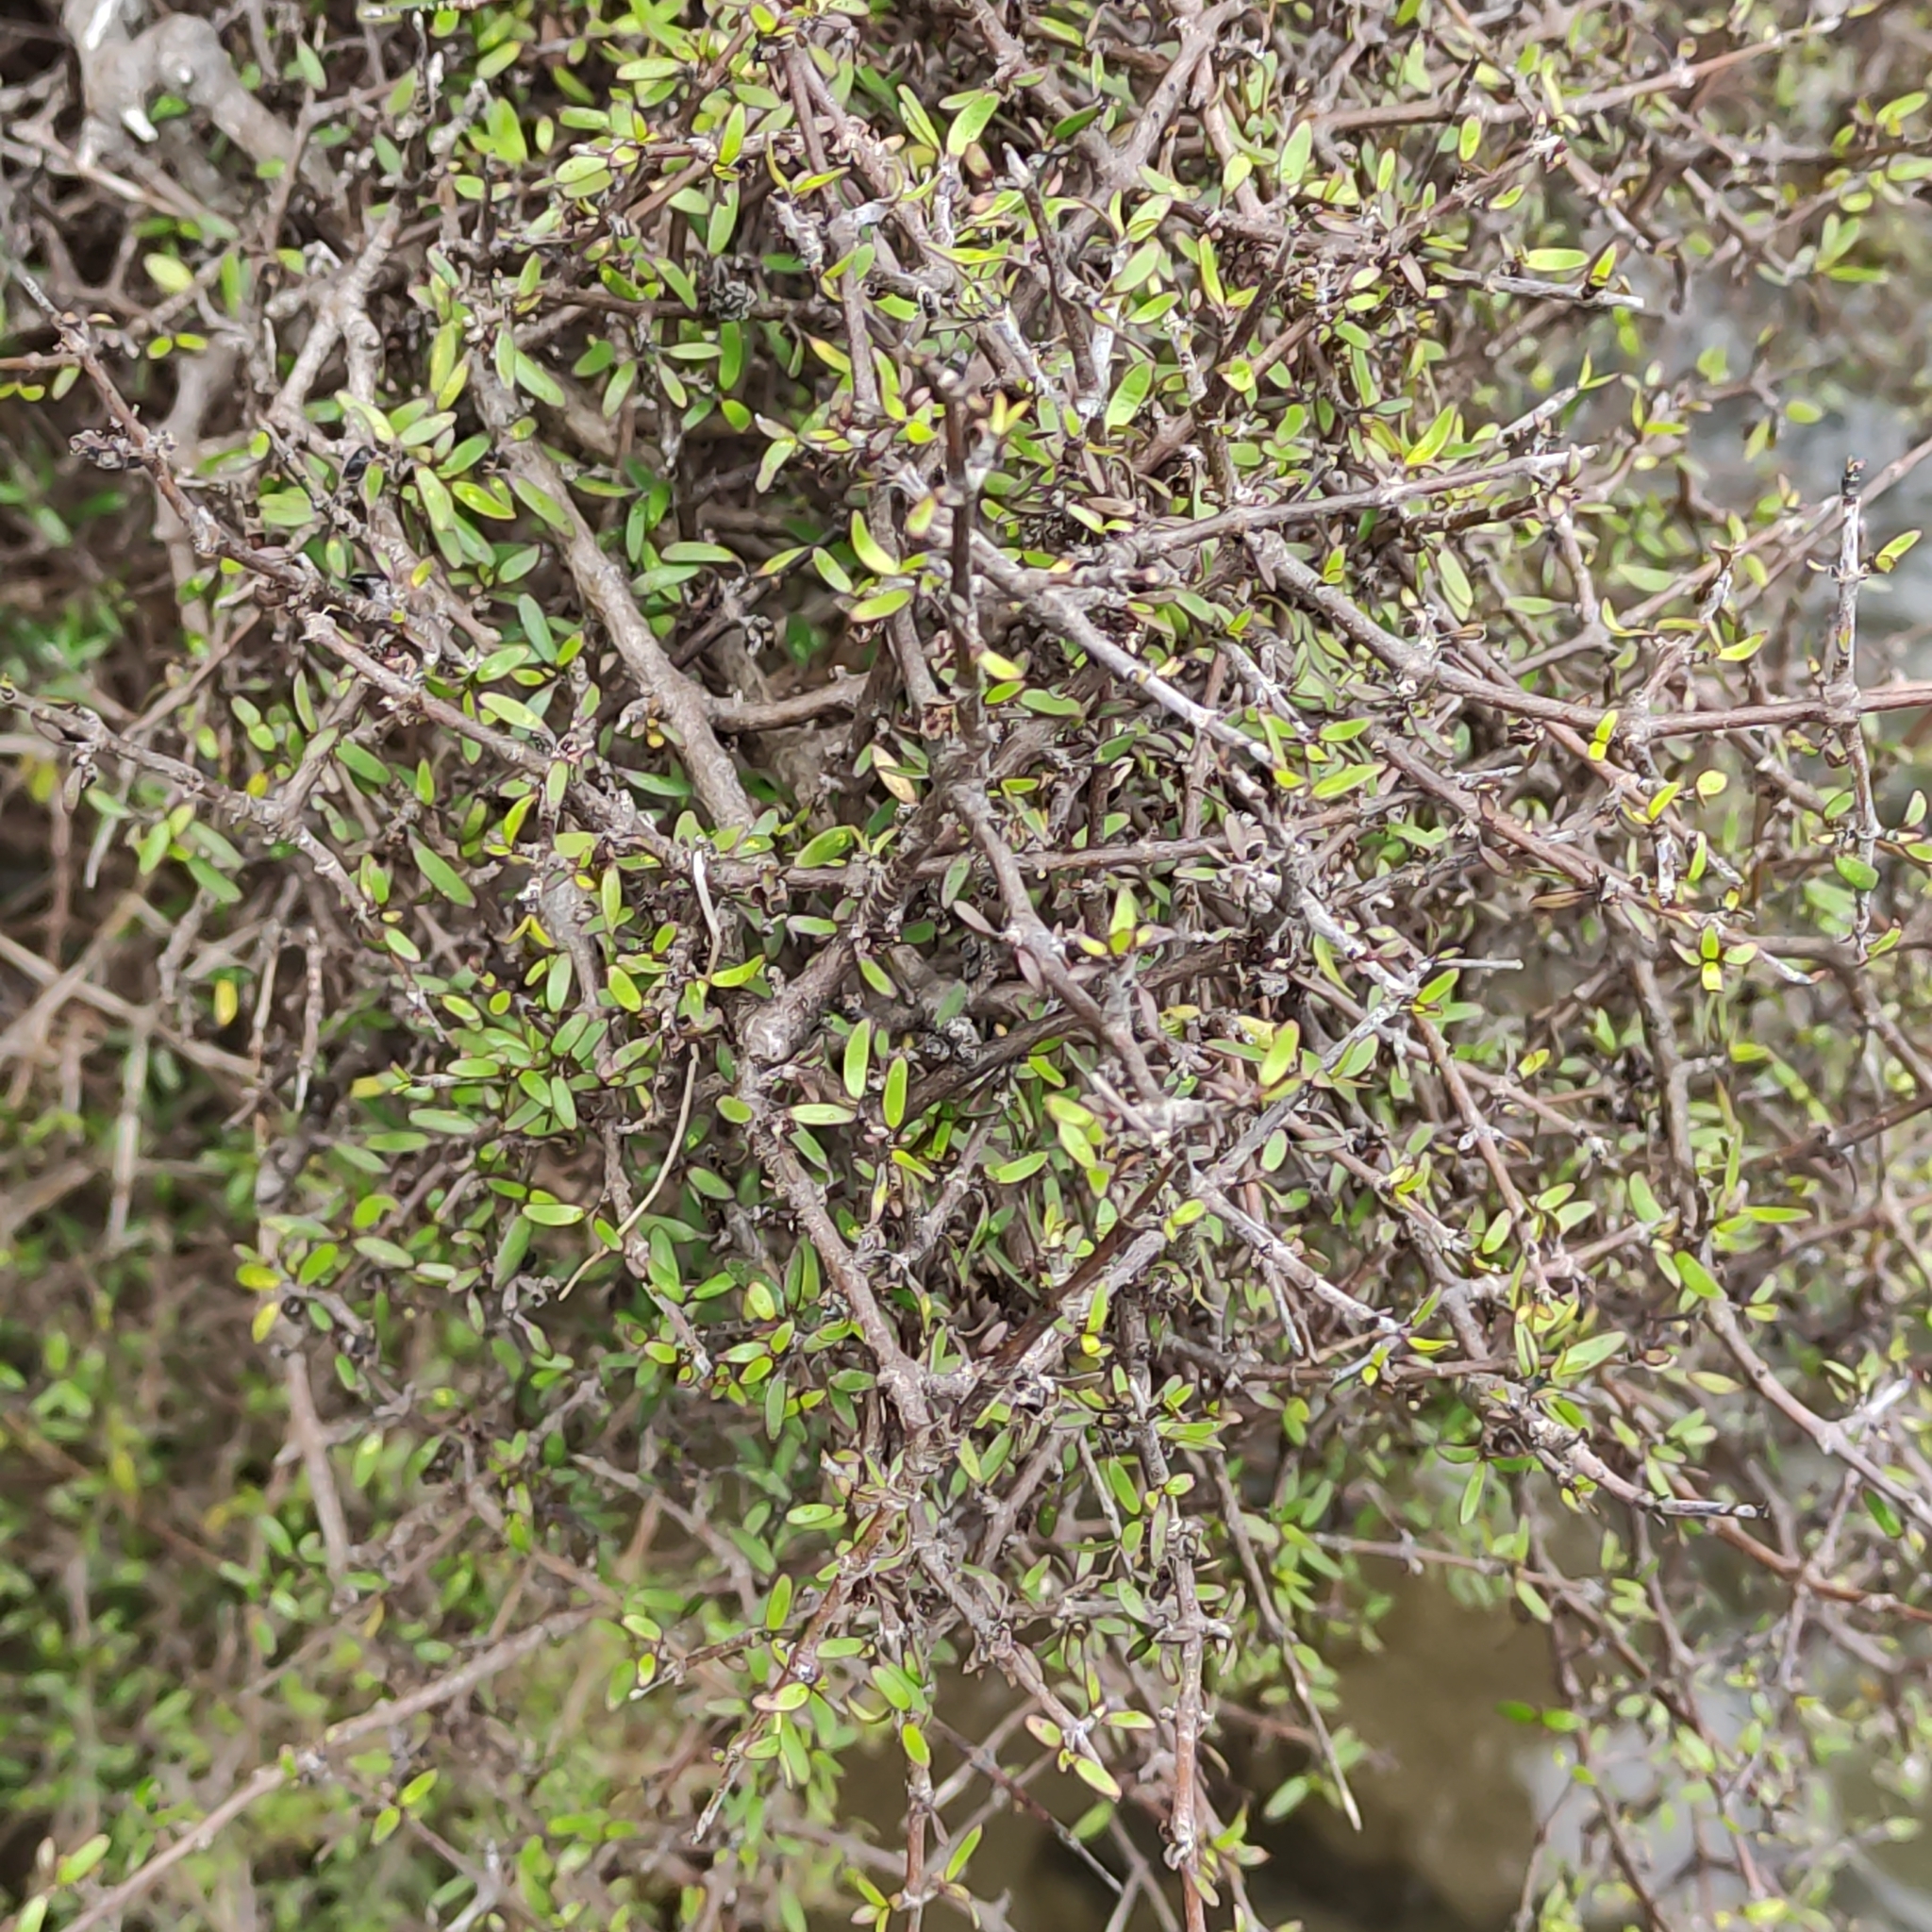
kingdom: Plantae
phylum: Tracheophyta
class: Magnoliopsida
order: Gentianales
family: Rubiaceae
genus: Coprosma
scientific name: Coprosma propinqua
